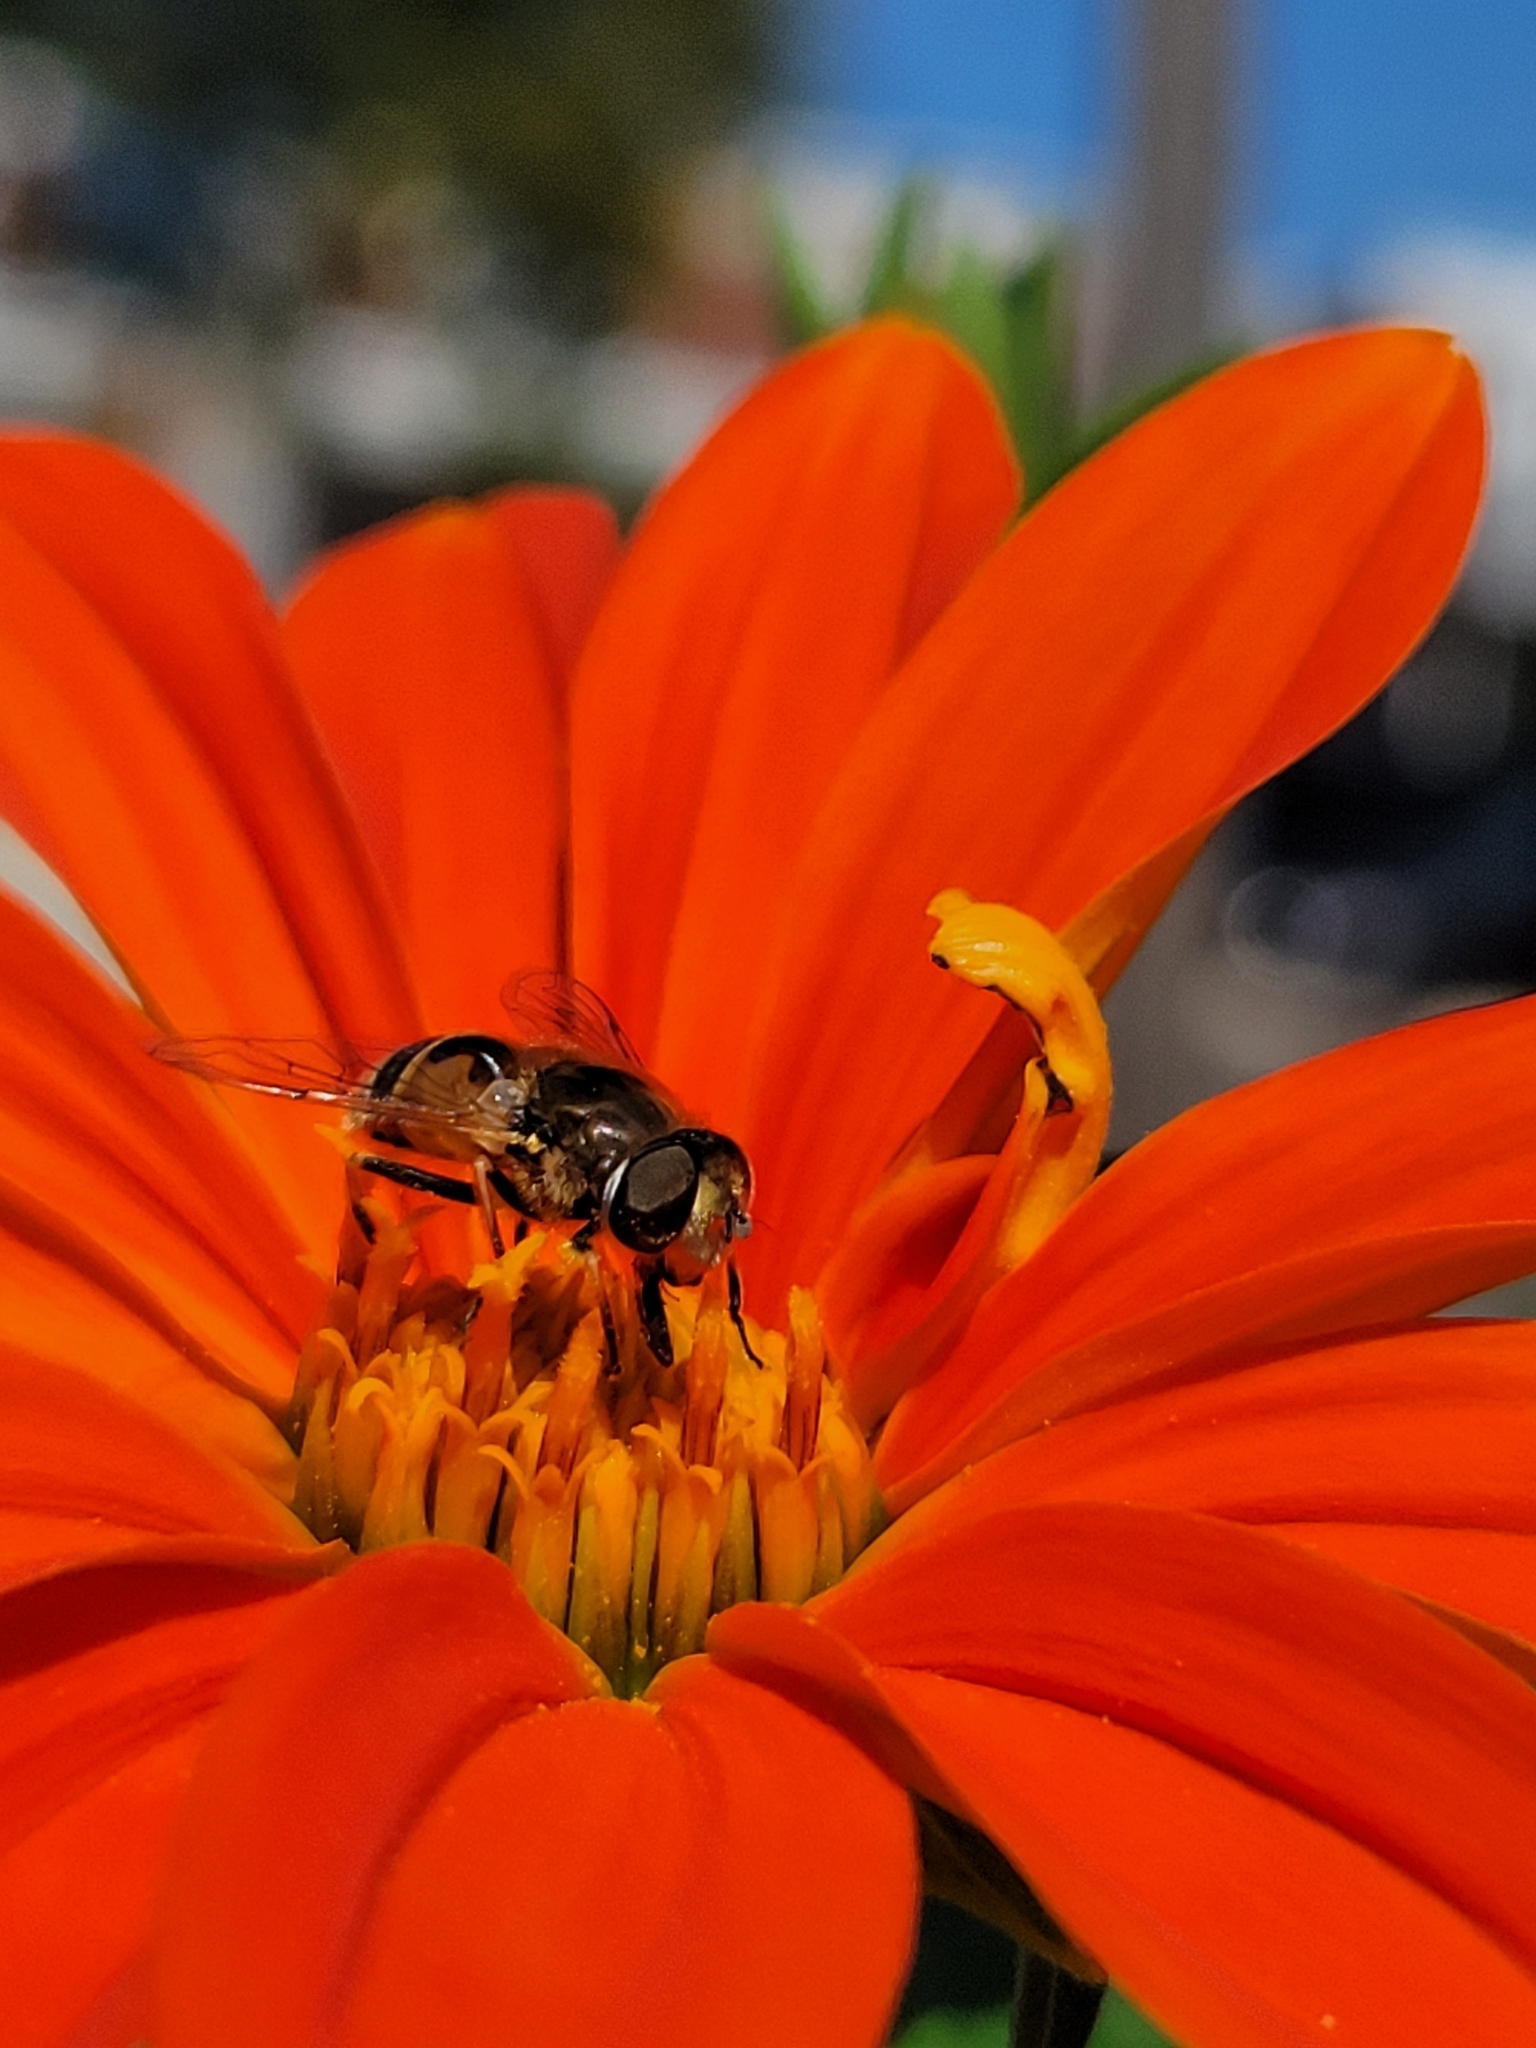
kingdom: Animalia
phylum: Arthropoda
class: Insecta
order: Diptera
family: Syrphidae
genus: Eristalis
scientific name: Eristalis arbustorum
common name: Hover fly
